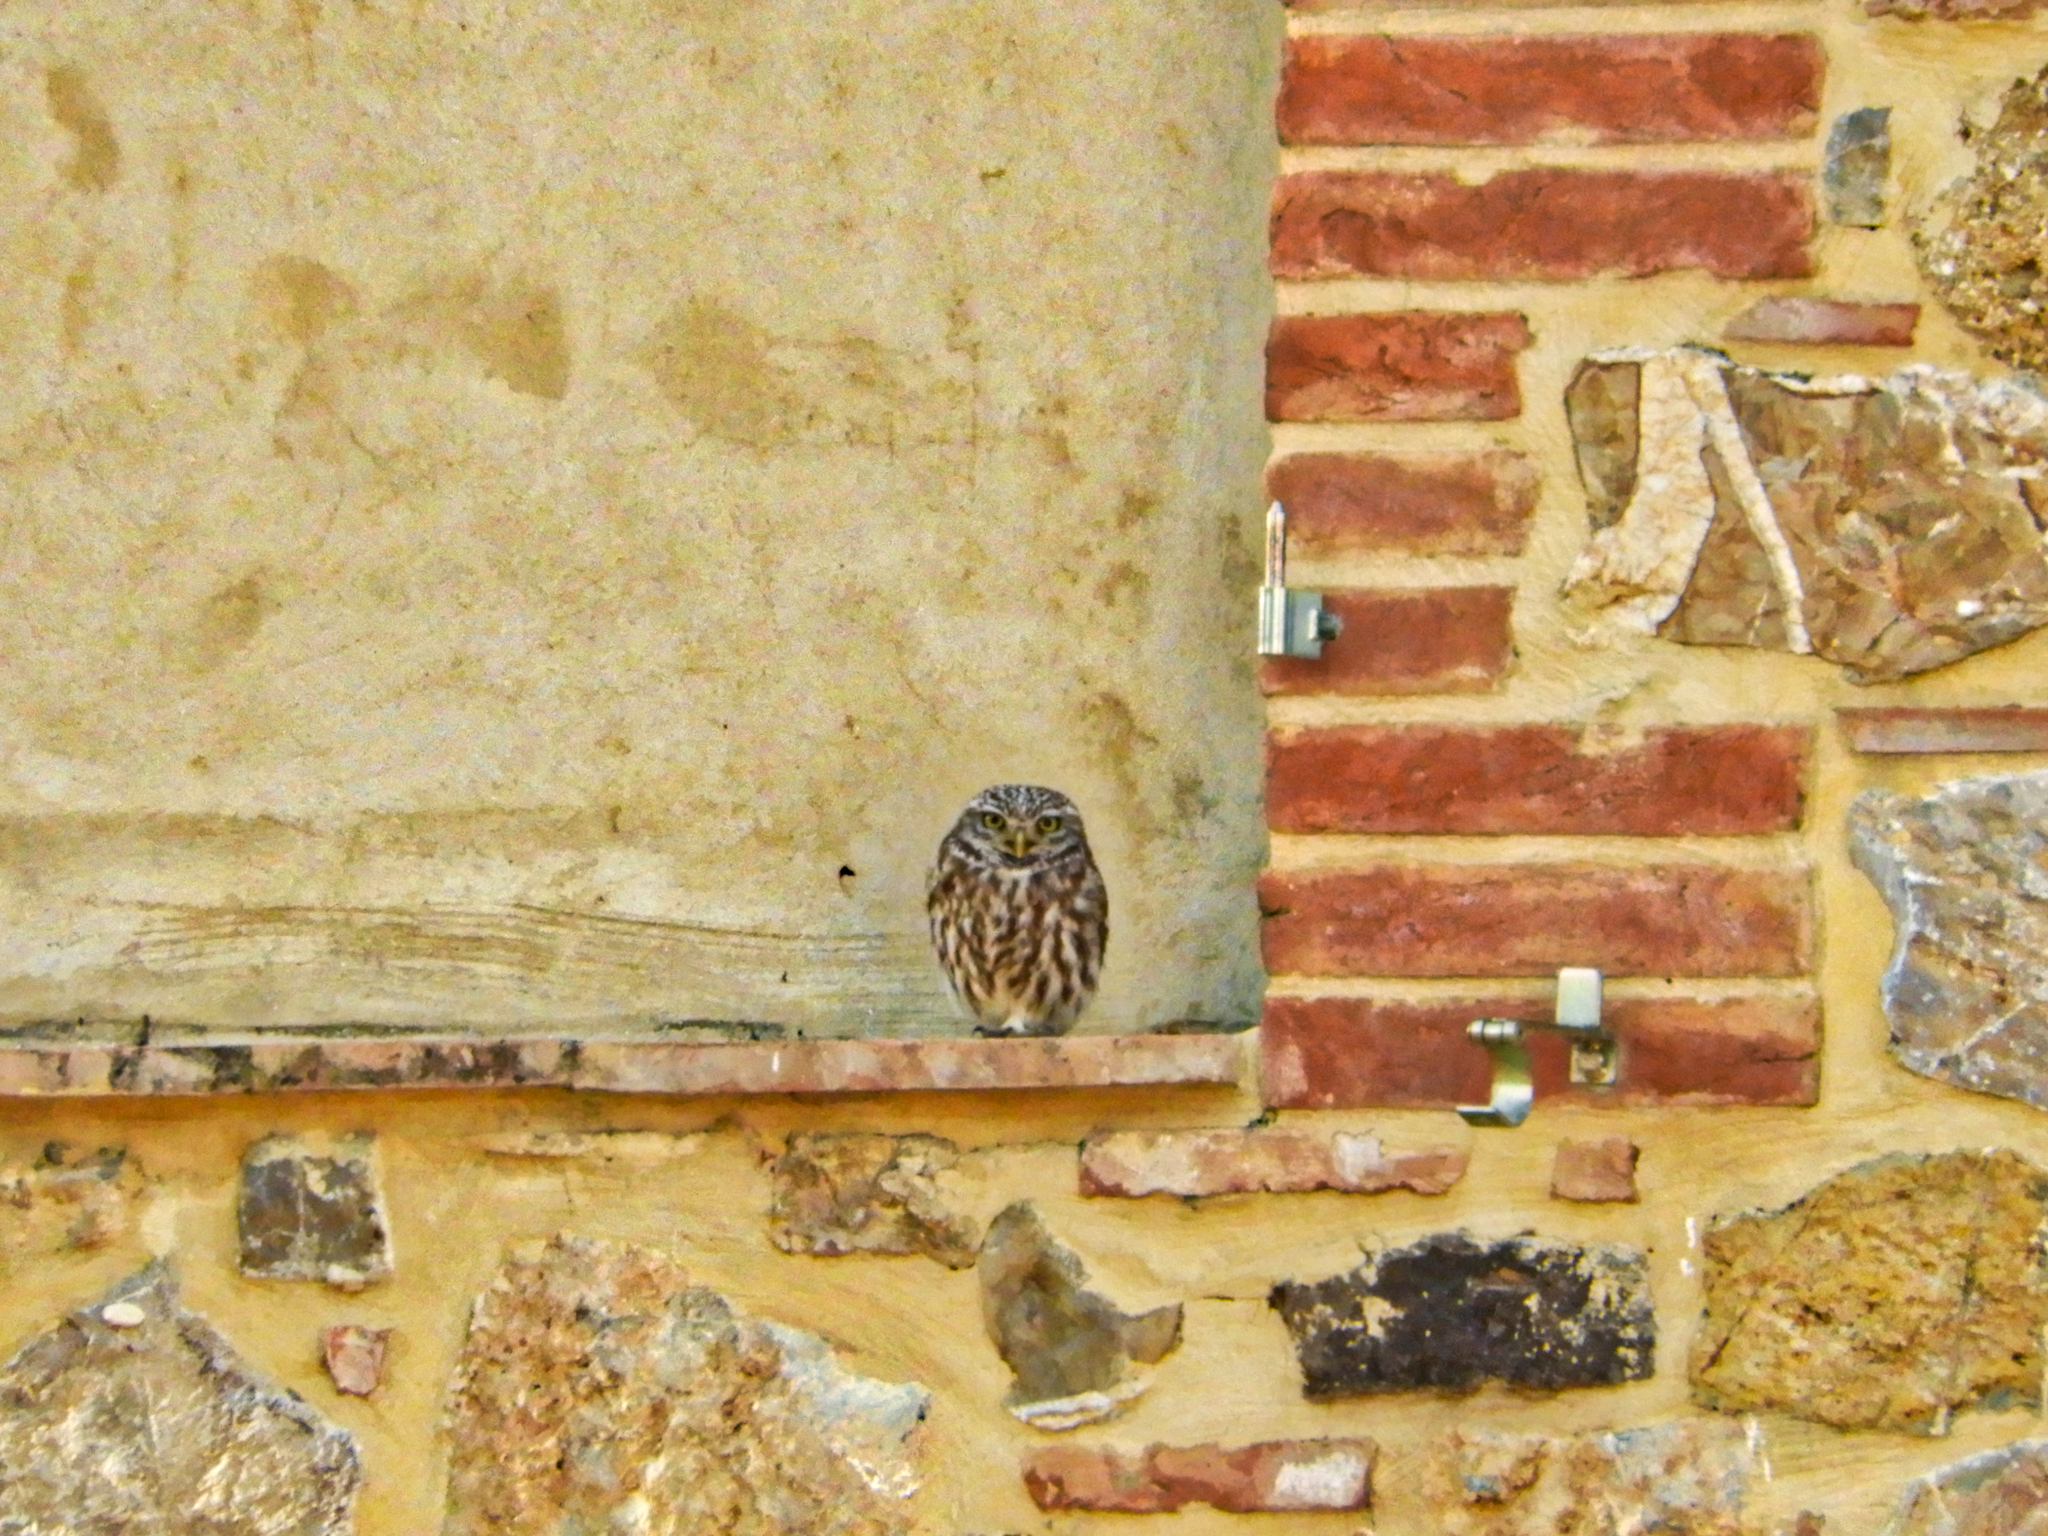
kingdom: Animalia
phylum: Chordata
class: Aves
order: Strigiformes
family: Strigidae
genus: Athene
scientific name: Athene noctua
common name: Little owl
